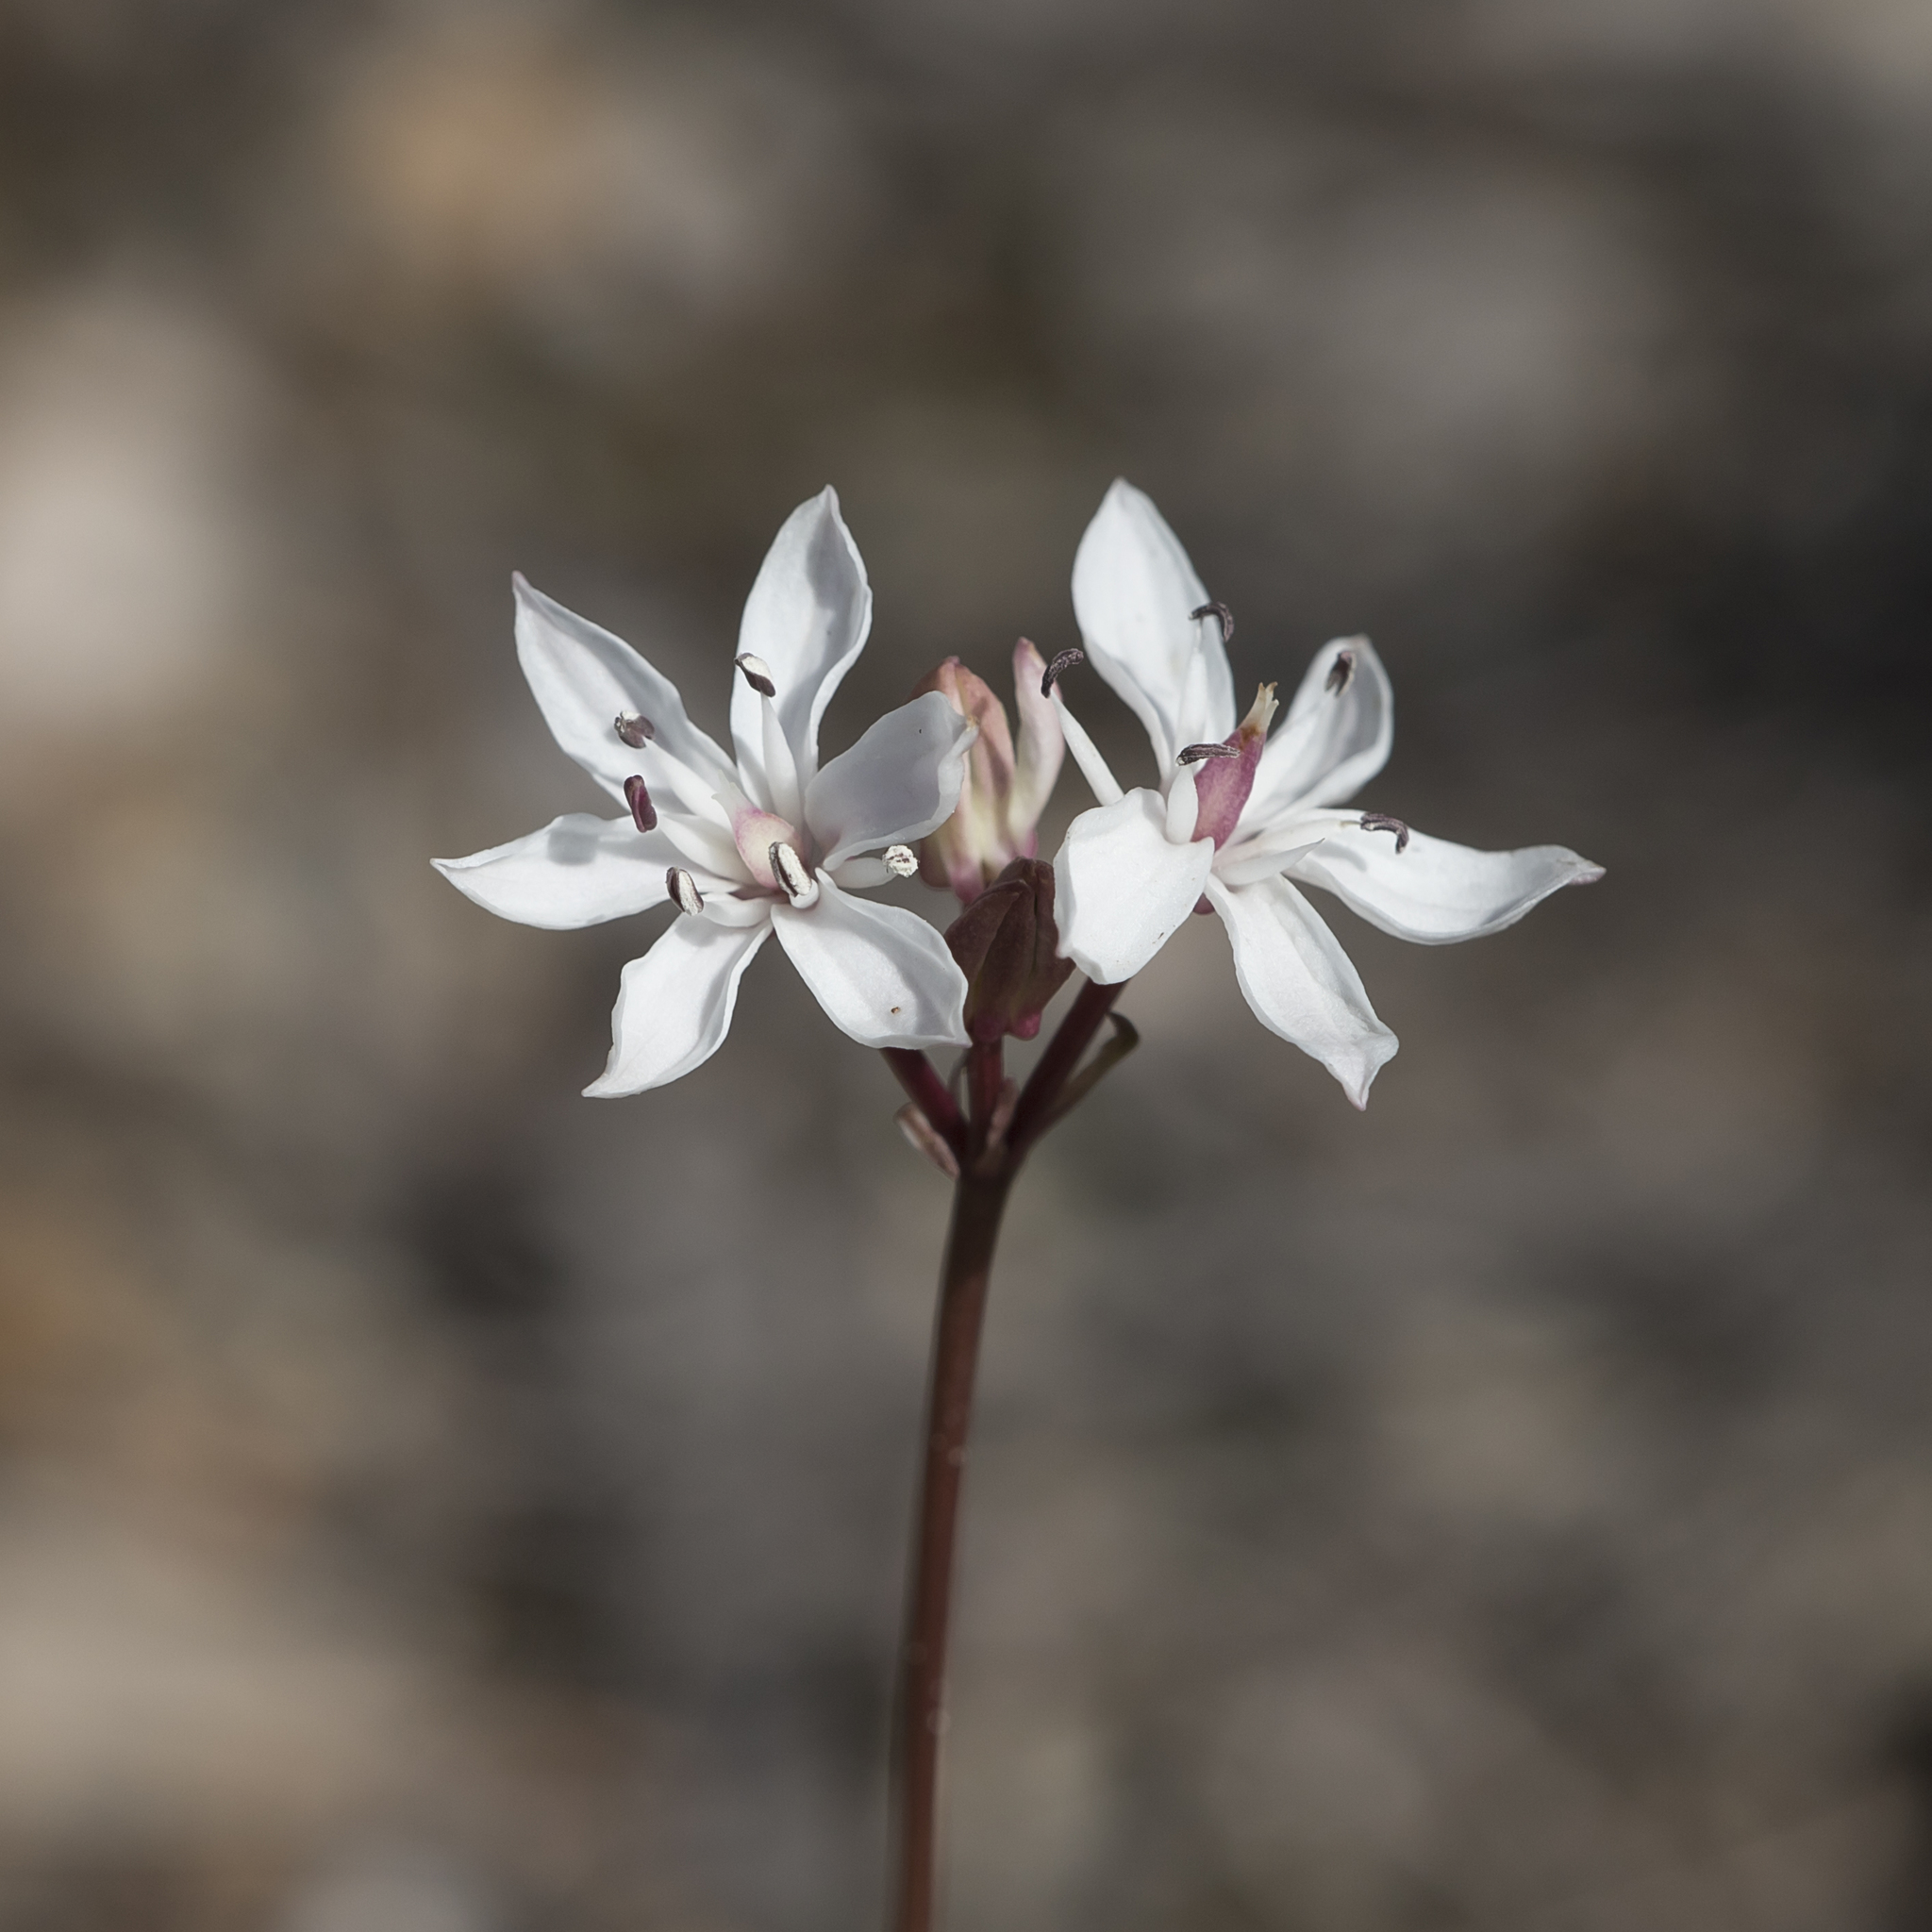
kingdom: Plantae
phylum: Tracheophyta
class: Liliopsida
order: Liliales
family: Colchicaceae
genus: Burchardia
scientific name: Burchardia umbellata
